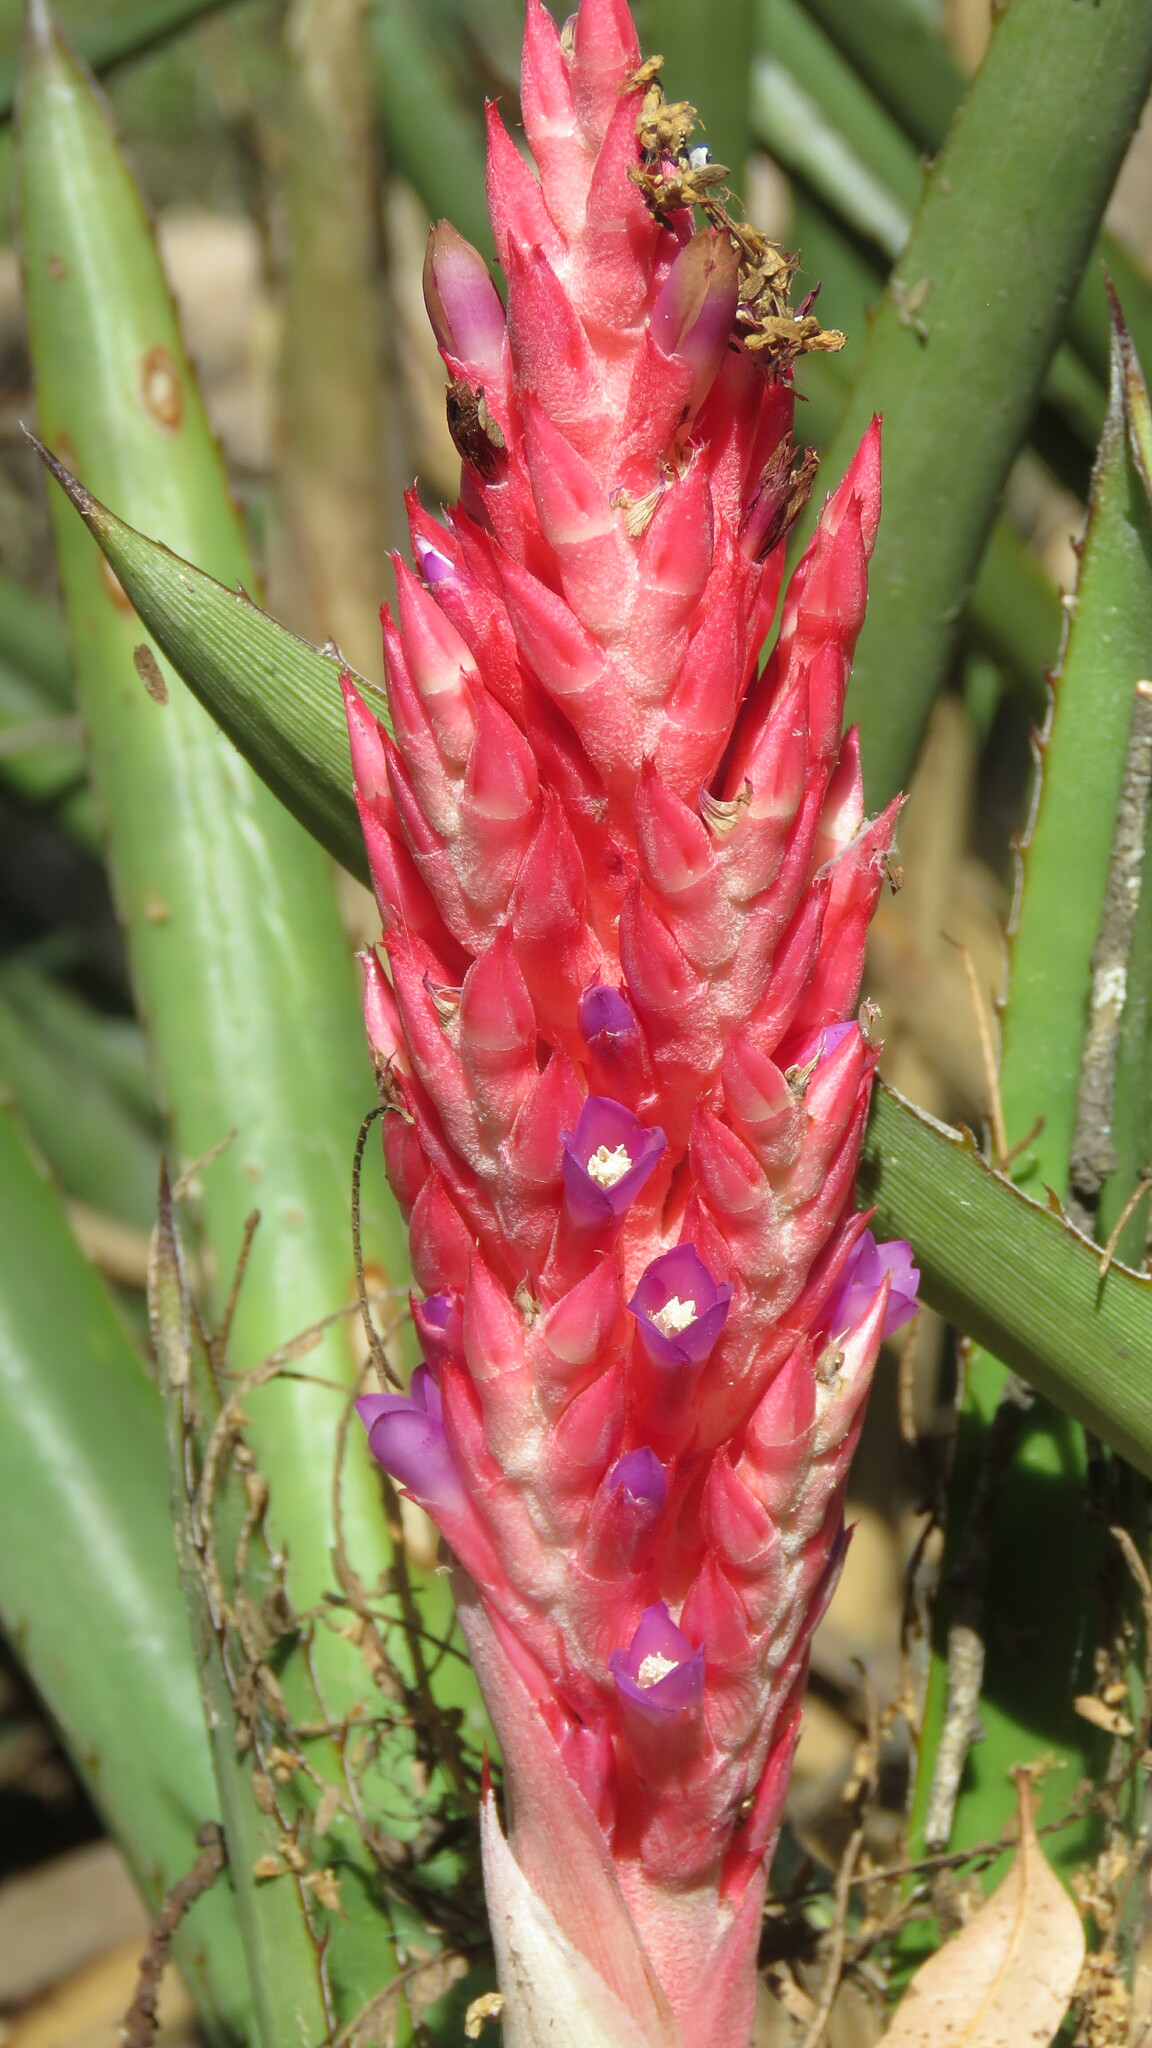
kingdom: Plantae
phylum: Tracheophyta
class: Liliopsida
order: Poales
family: Bromeliaceae
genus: Aechmea
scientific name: Aechmea distichantha
